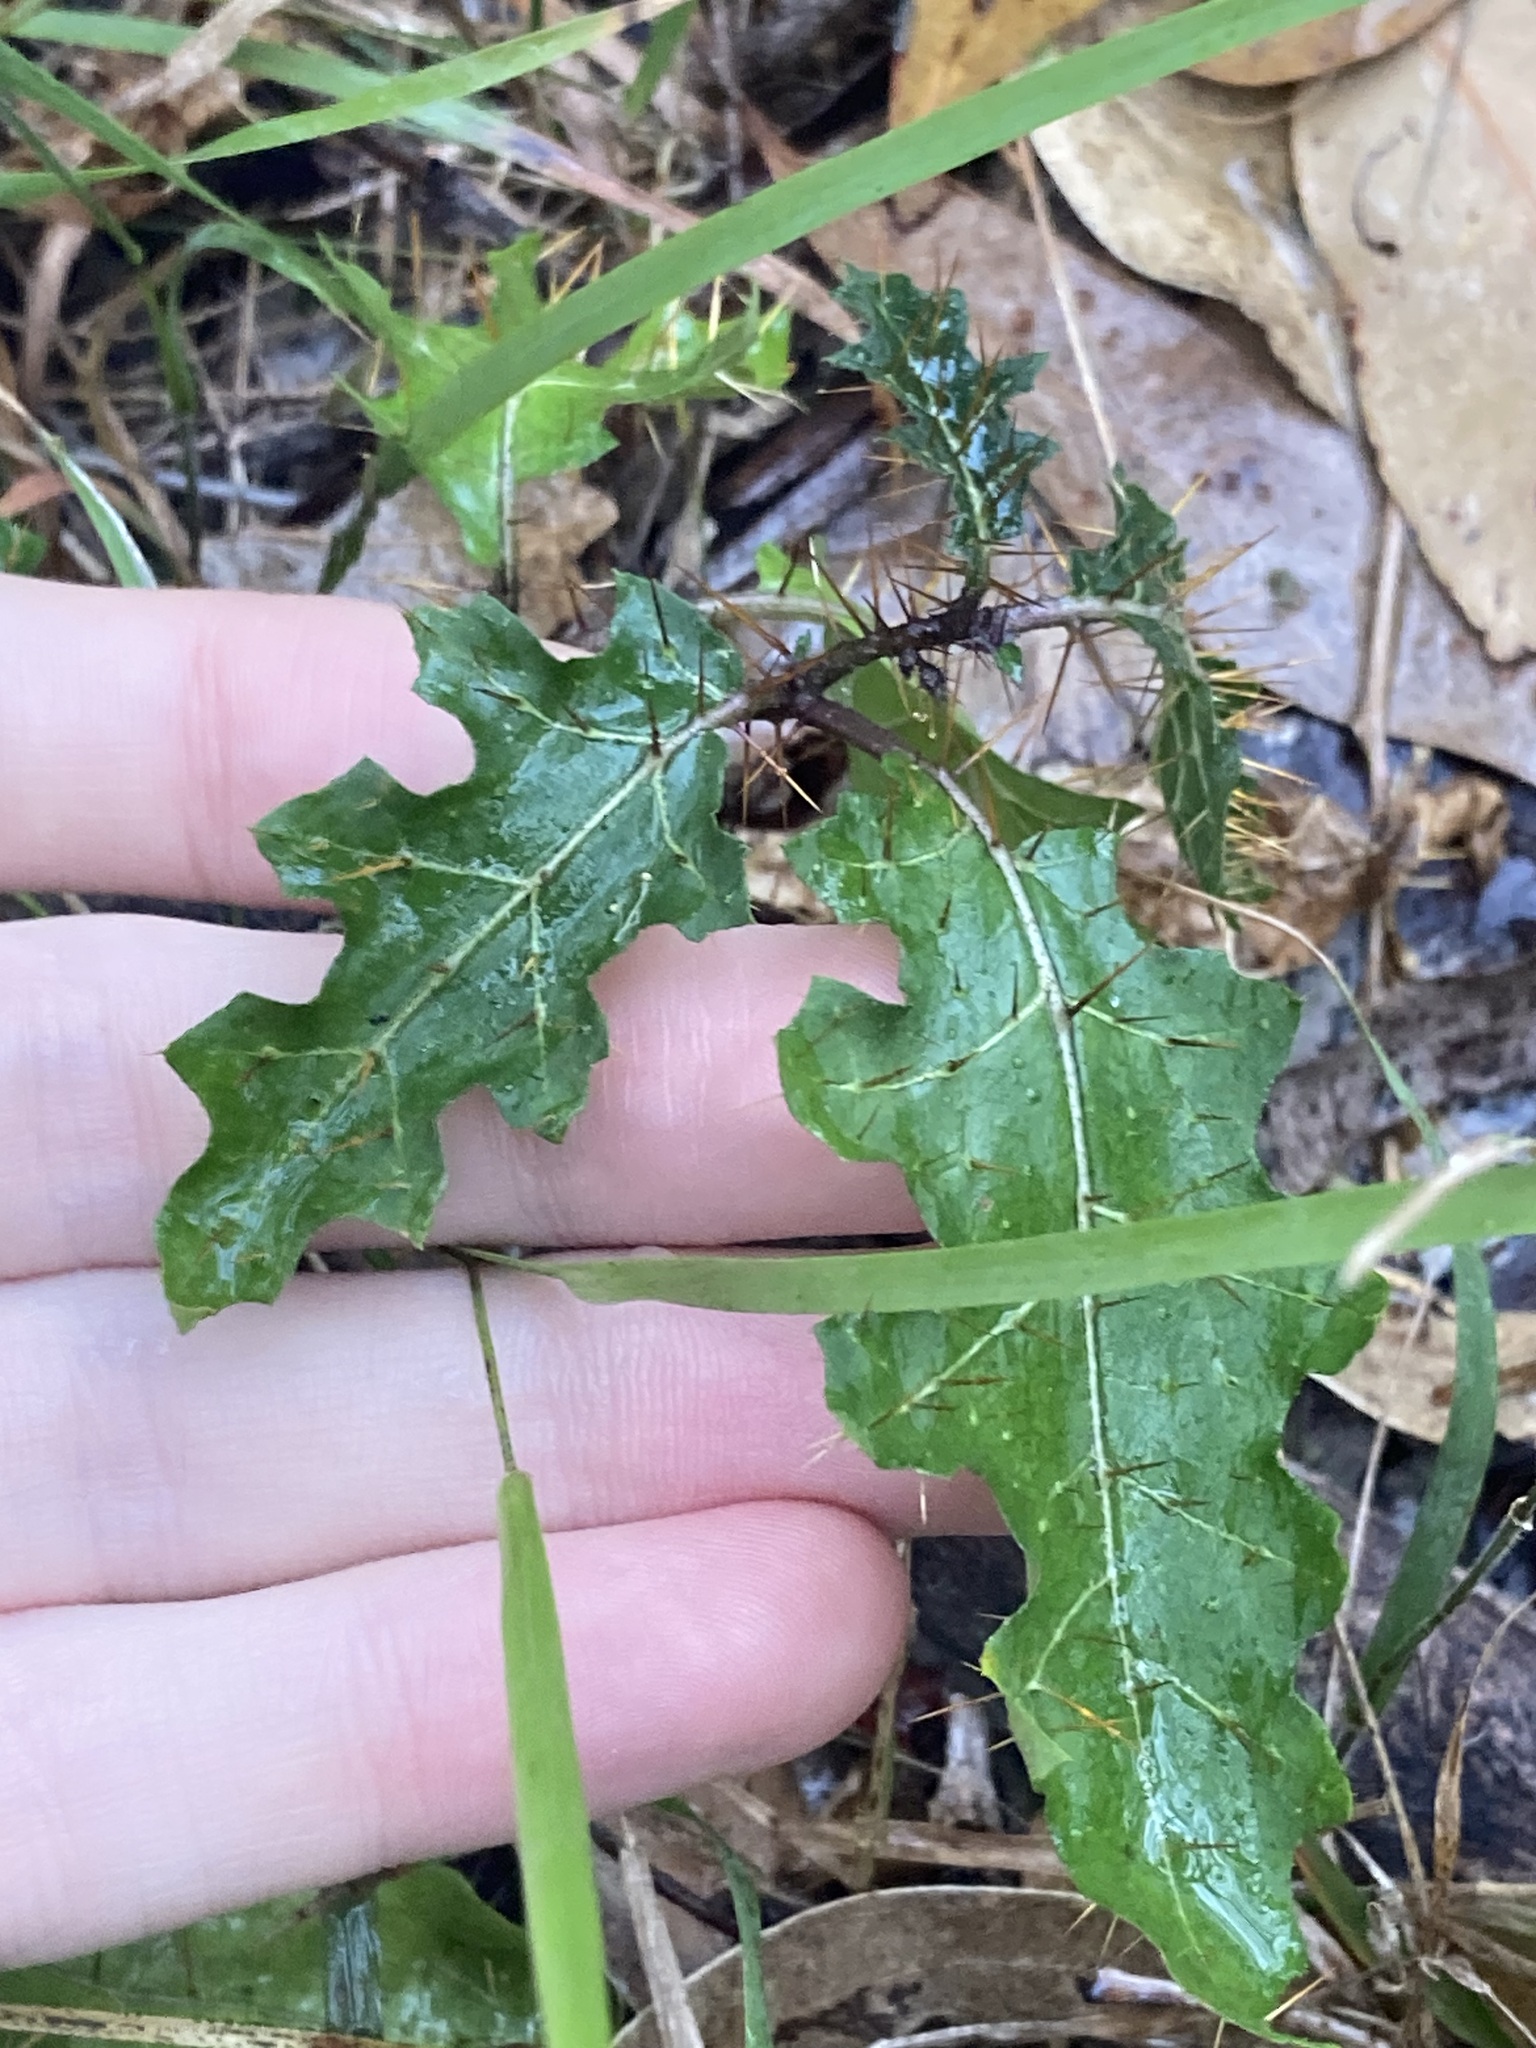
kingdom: Plantae
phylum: Tracheophyta
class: Magnoliopsida
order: Solanales
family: Solanaceae
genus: Solanum
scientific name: Solanum prinophyllum
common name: Forest nightshade
